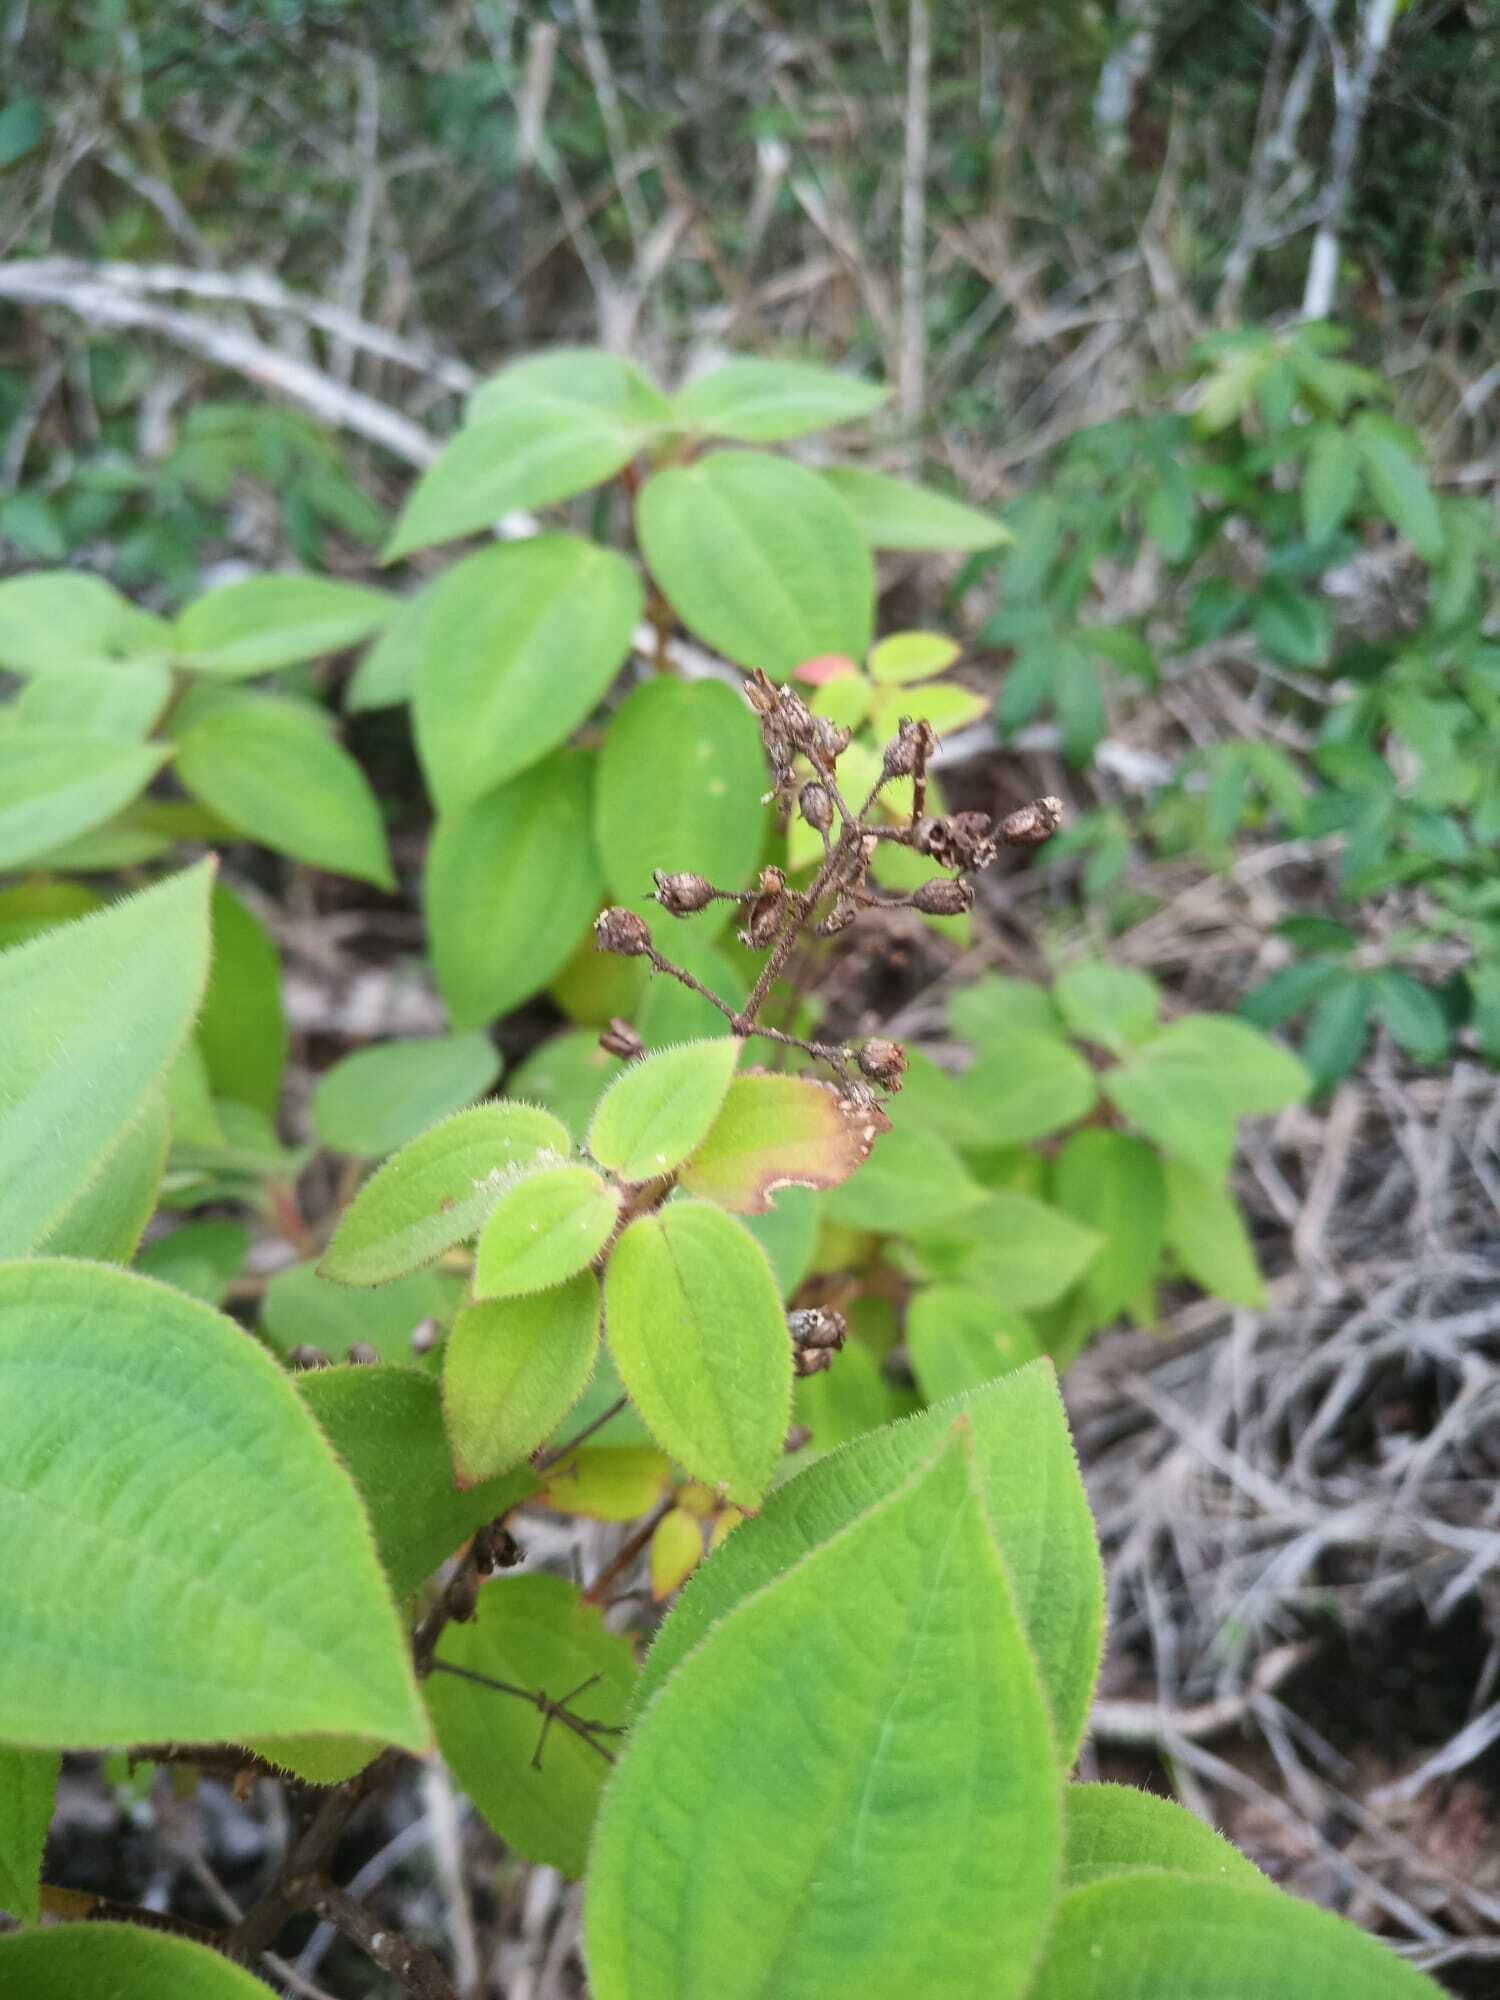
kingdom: Plantae
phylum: Tracheophyta
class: Magnoliopsida
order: Myrtales
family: Melastomataceae
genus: Ernestia
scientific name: Ernestia granvillei
